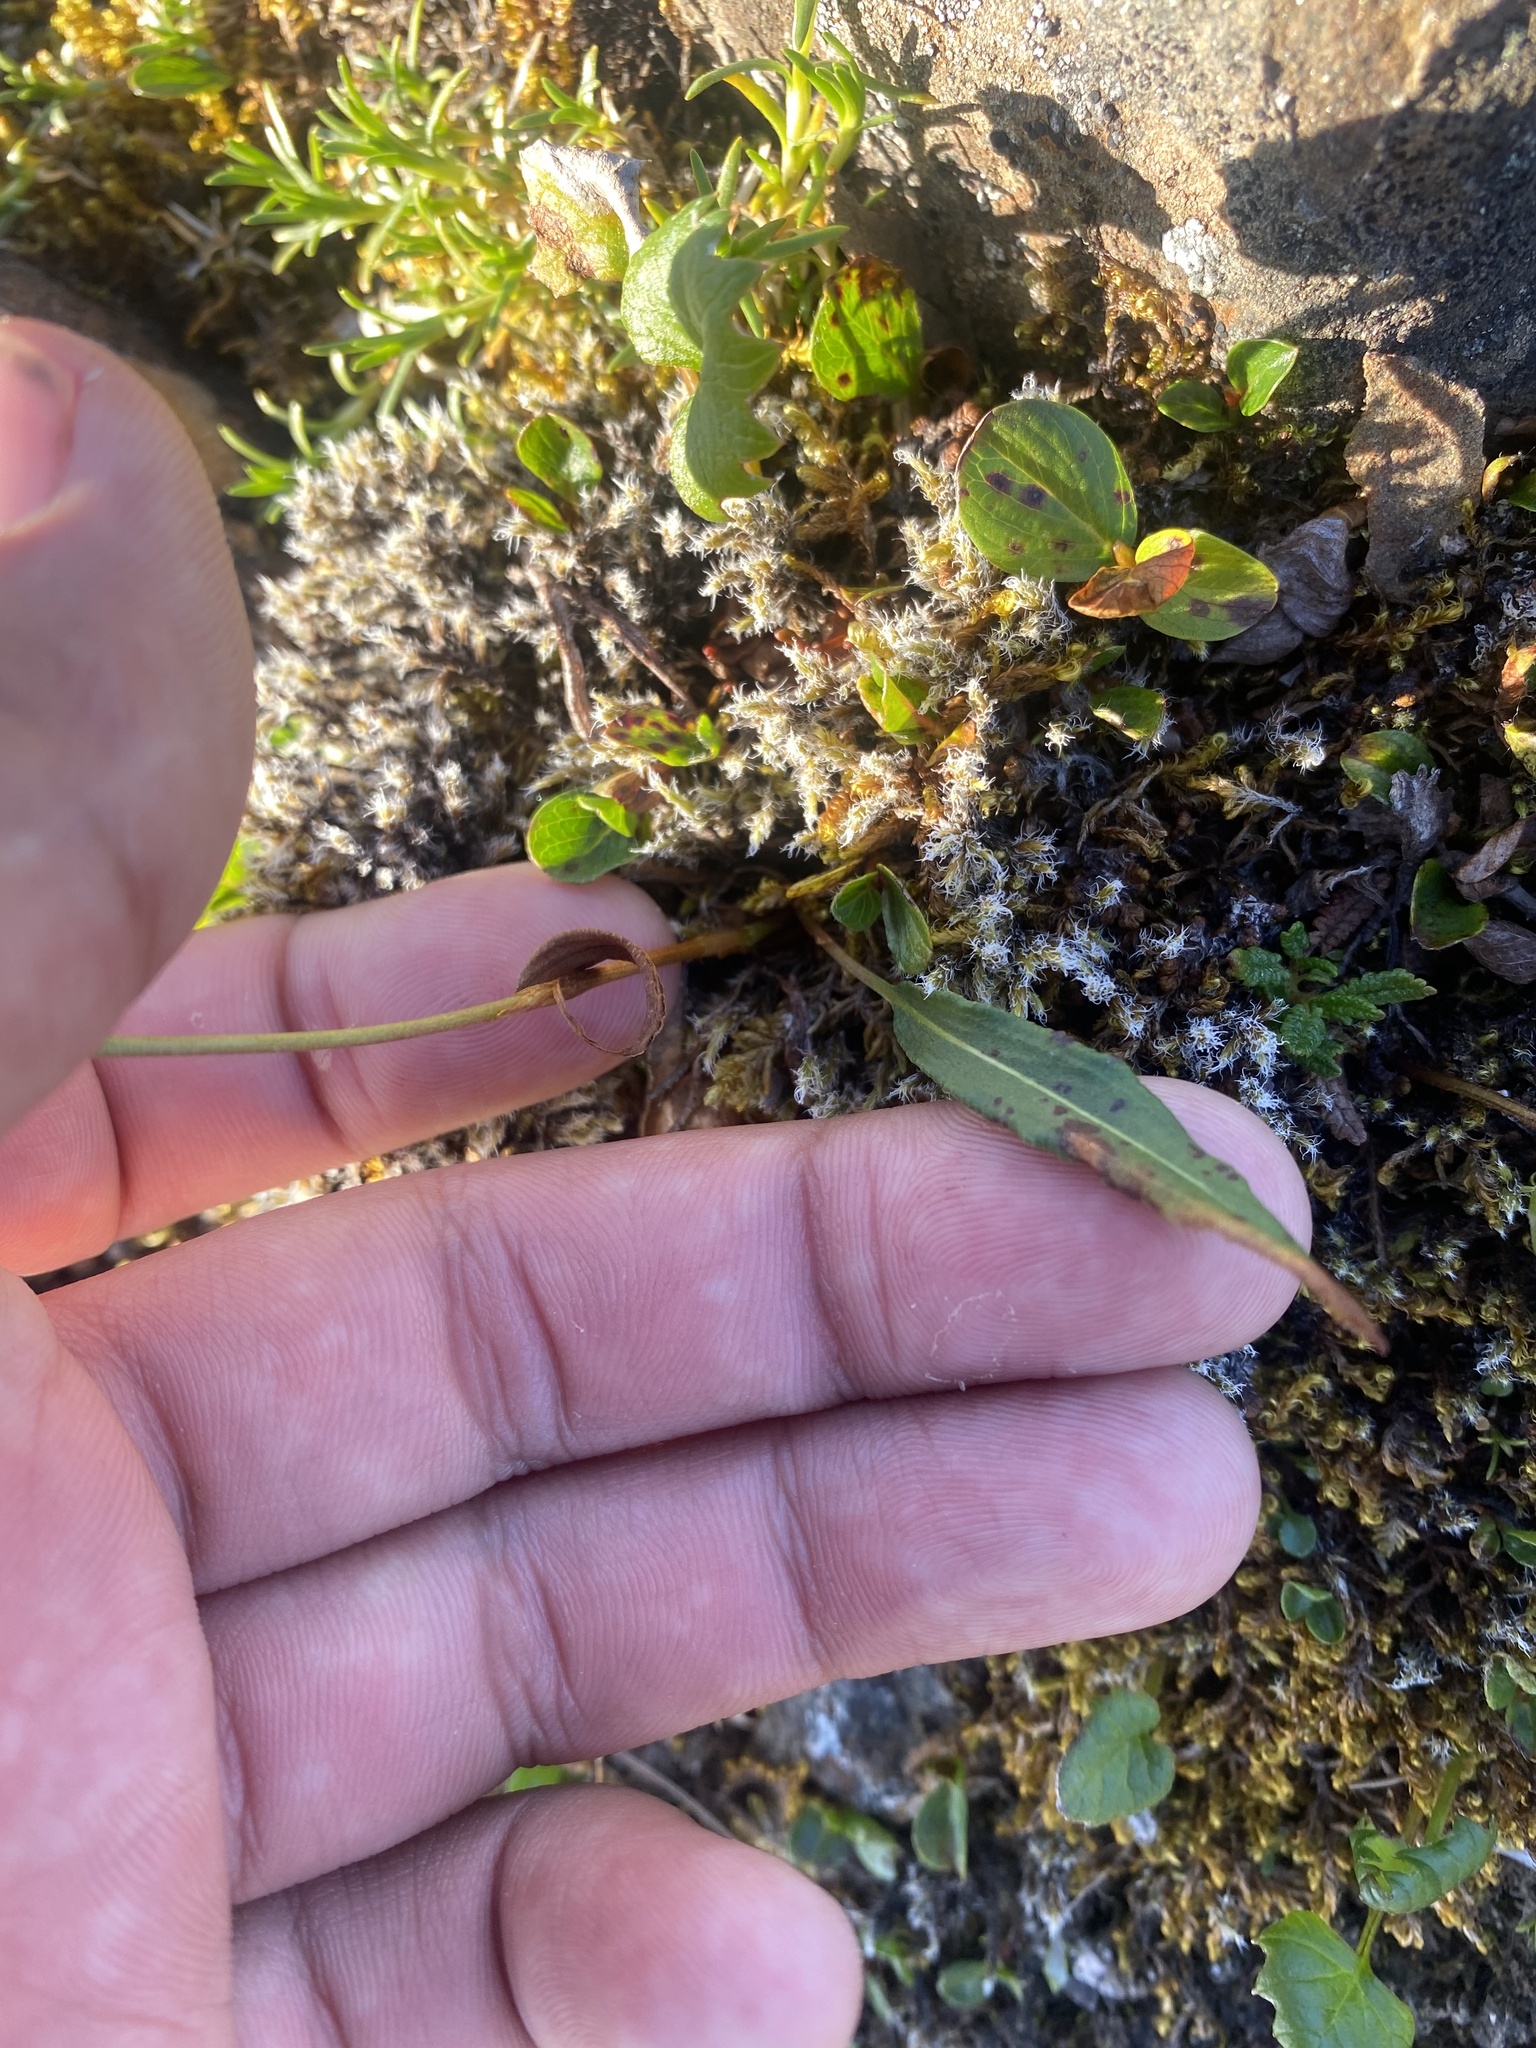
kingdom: Plantae
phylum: Tracheophyta
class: Magnoliopsida
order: Caryophyllales
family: Polygonaceae
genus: Bistorta
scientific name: Bistorta vivipara
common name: Alpine bistort
